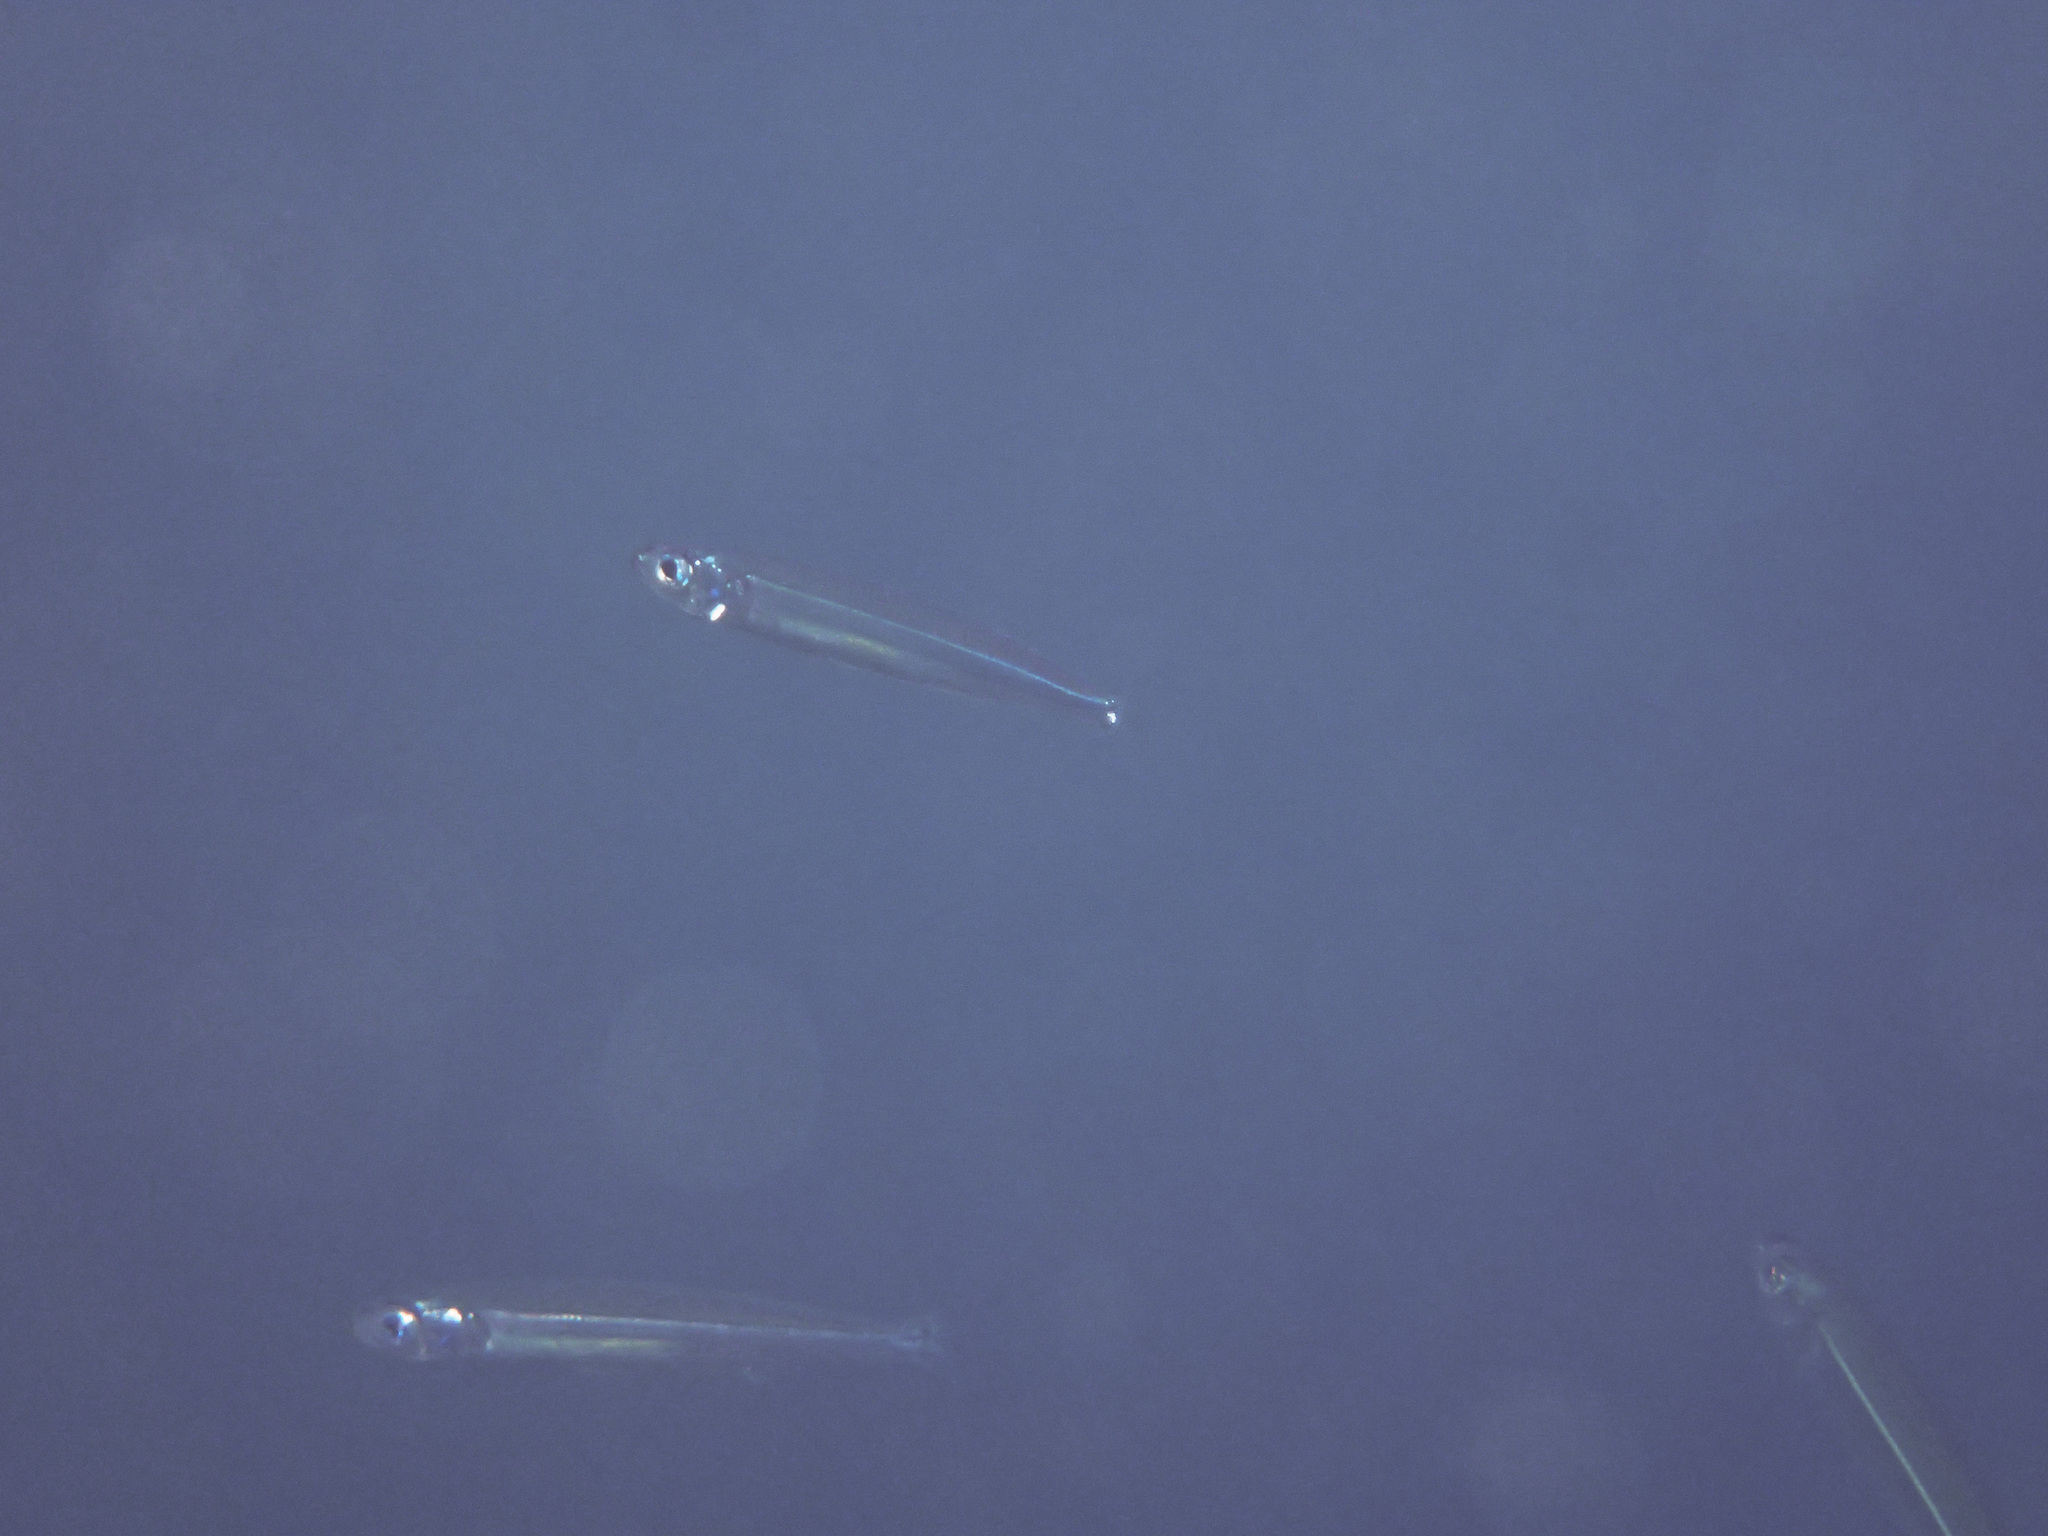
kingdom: Animalia
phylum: Chordata
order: Atheriniformes
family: Atherinidae
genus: Atherina
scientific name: Atherina hepsetus
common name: Mediterranean sand smelt
